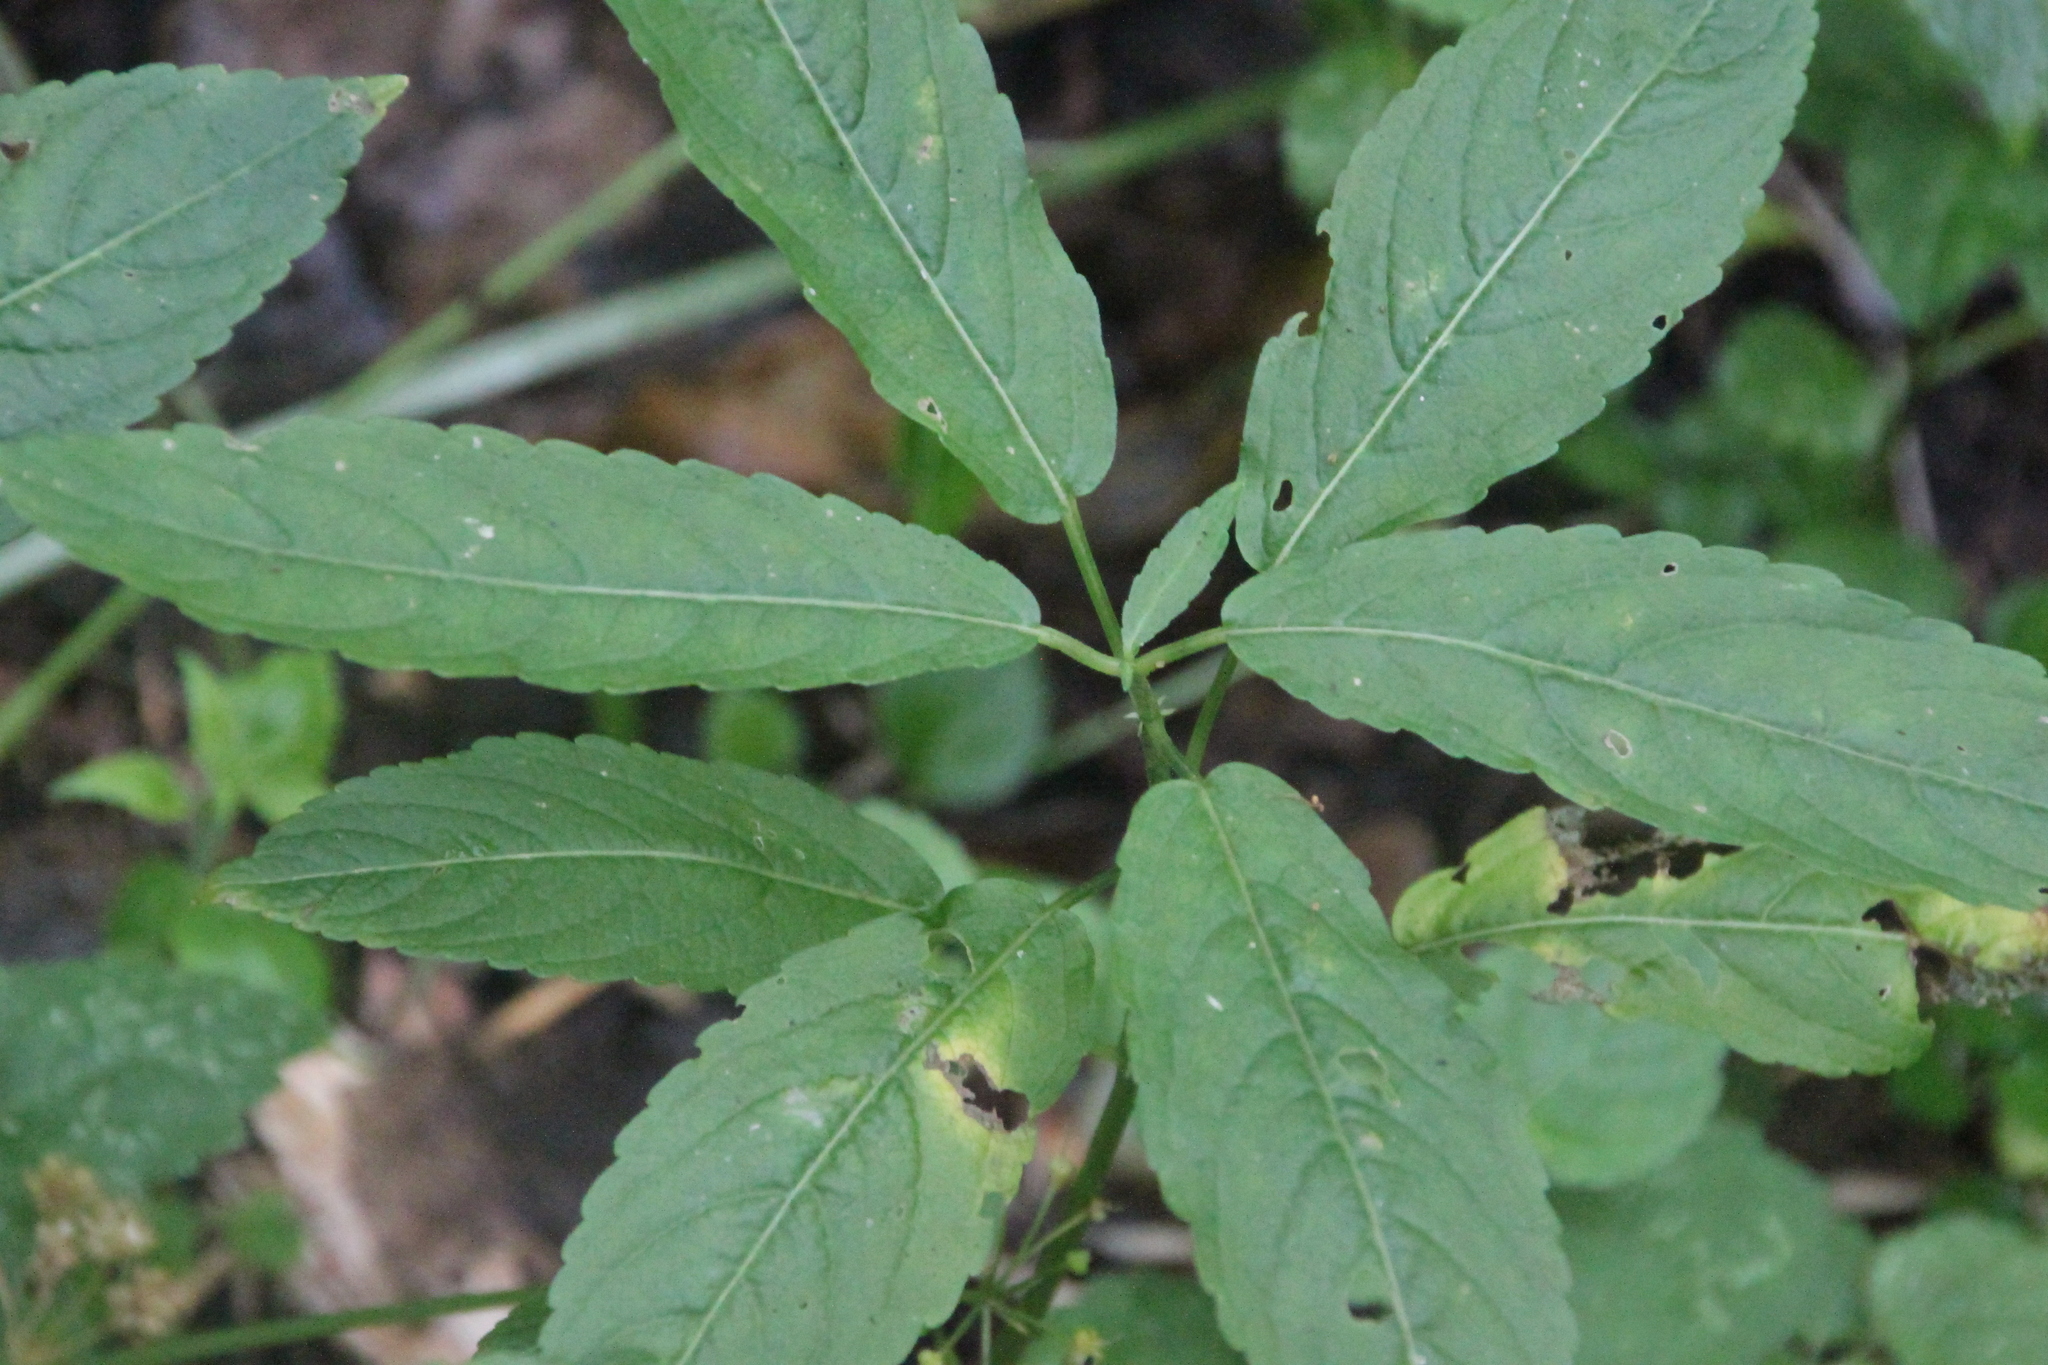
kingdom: Plantae
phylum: Tracheophyta
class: Magnoliopsida
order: Malpighiales
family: Euphorbiaceae
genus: Mercurialis
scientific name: Mercurialis perennis
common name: Dog mercury
